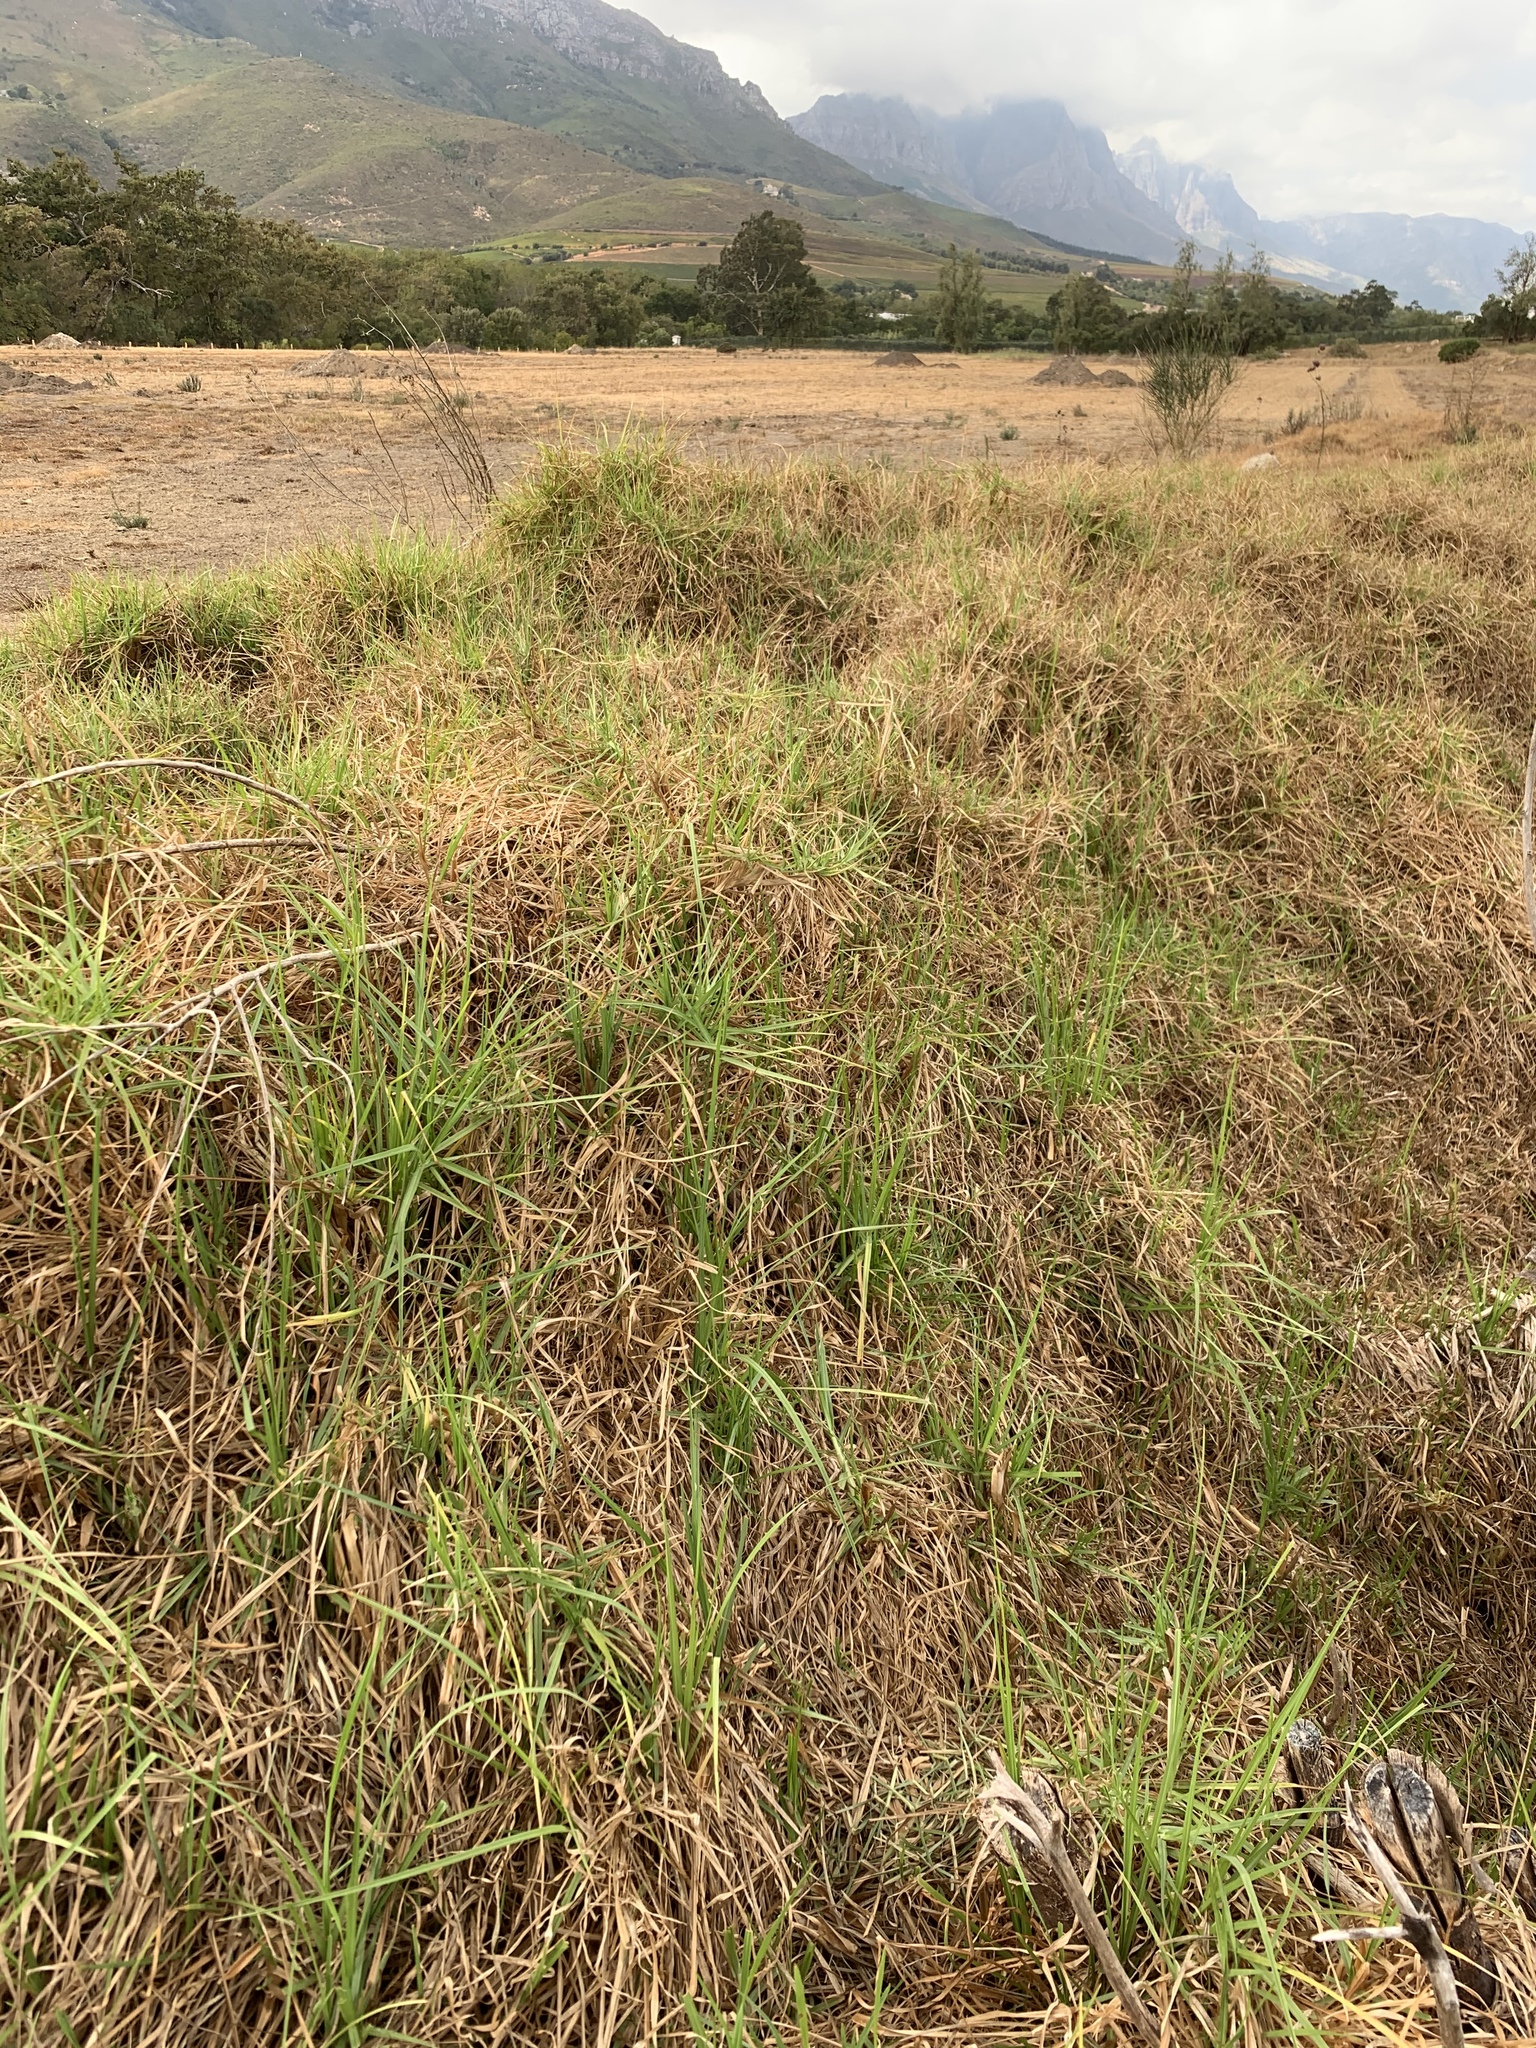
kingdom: Plantae
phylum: Tracheophyta
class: Liliopsida
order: Poales
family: Poaceae
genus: Cenchrus
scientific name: Cenchrus clandestinus
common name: Kikuyugrass
